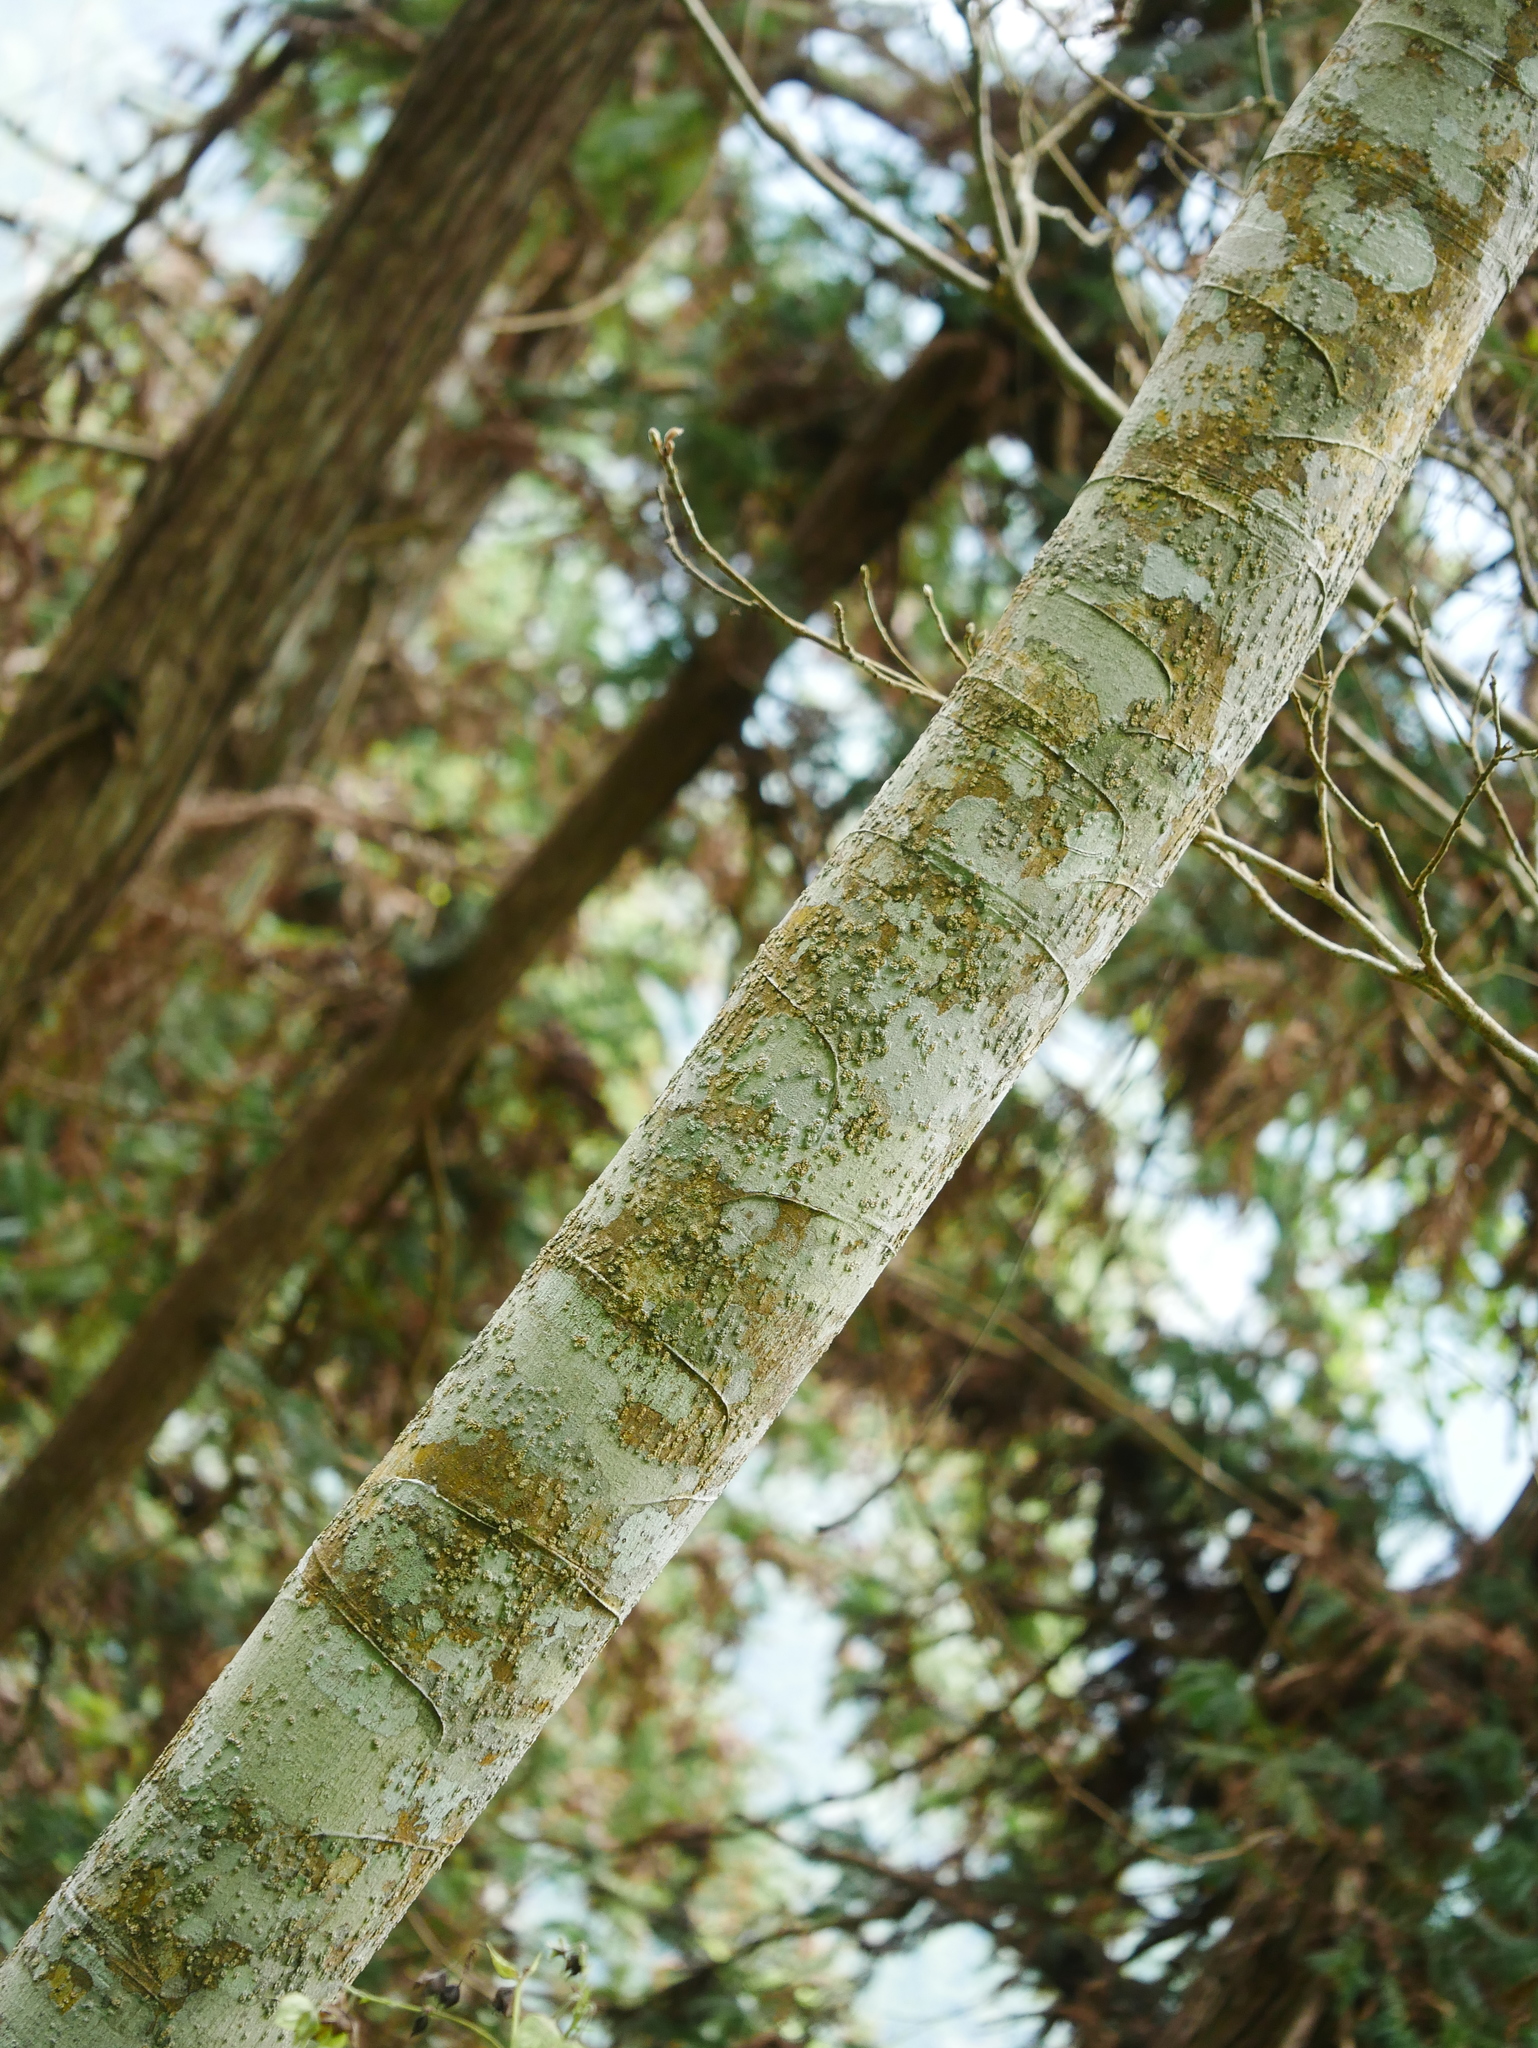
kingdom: Plantae
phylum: Tracheophyta
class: Magnoliopsida
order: Malpighiales
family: Salicaceae
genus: Casearia
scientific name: Casearia glomerata
